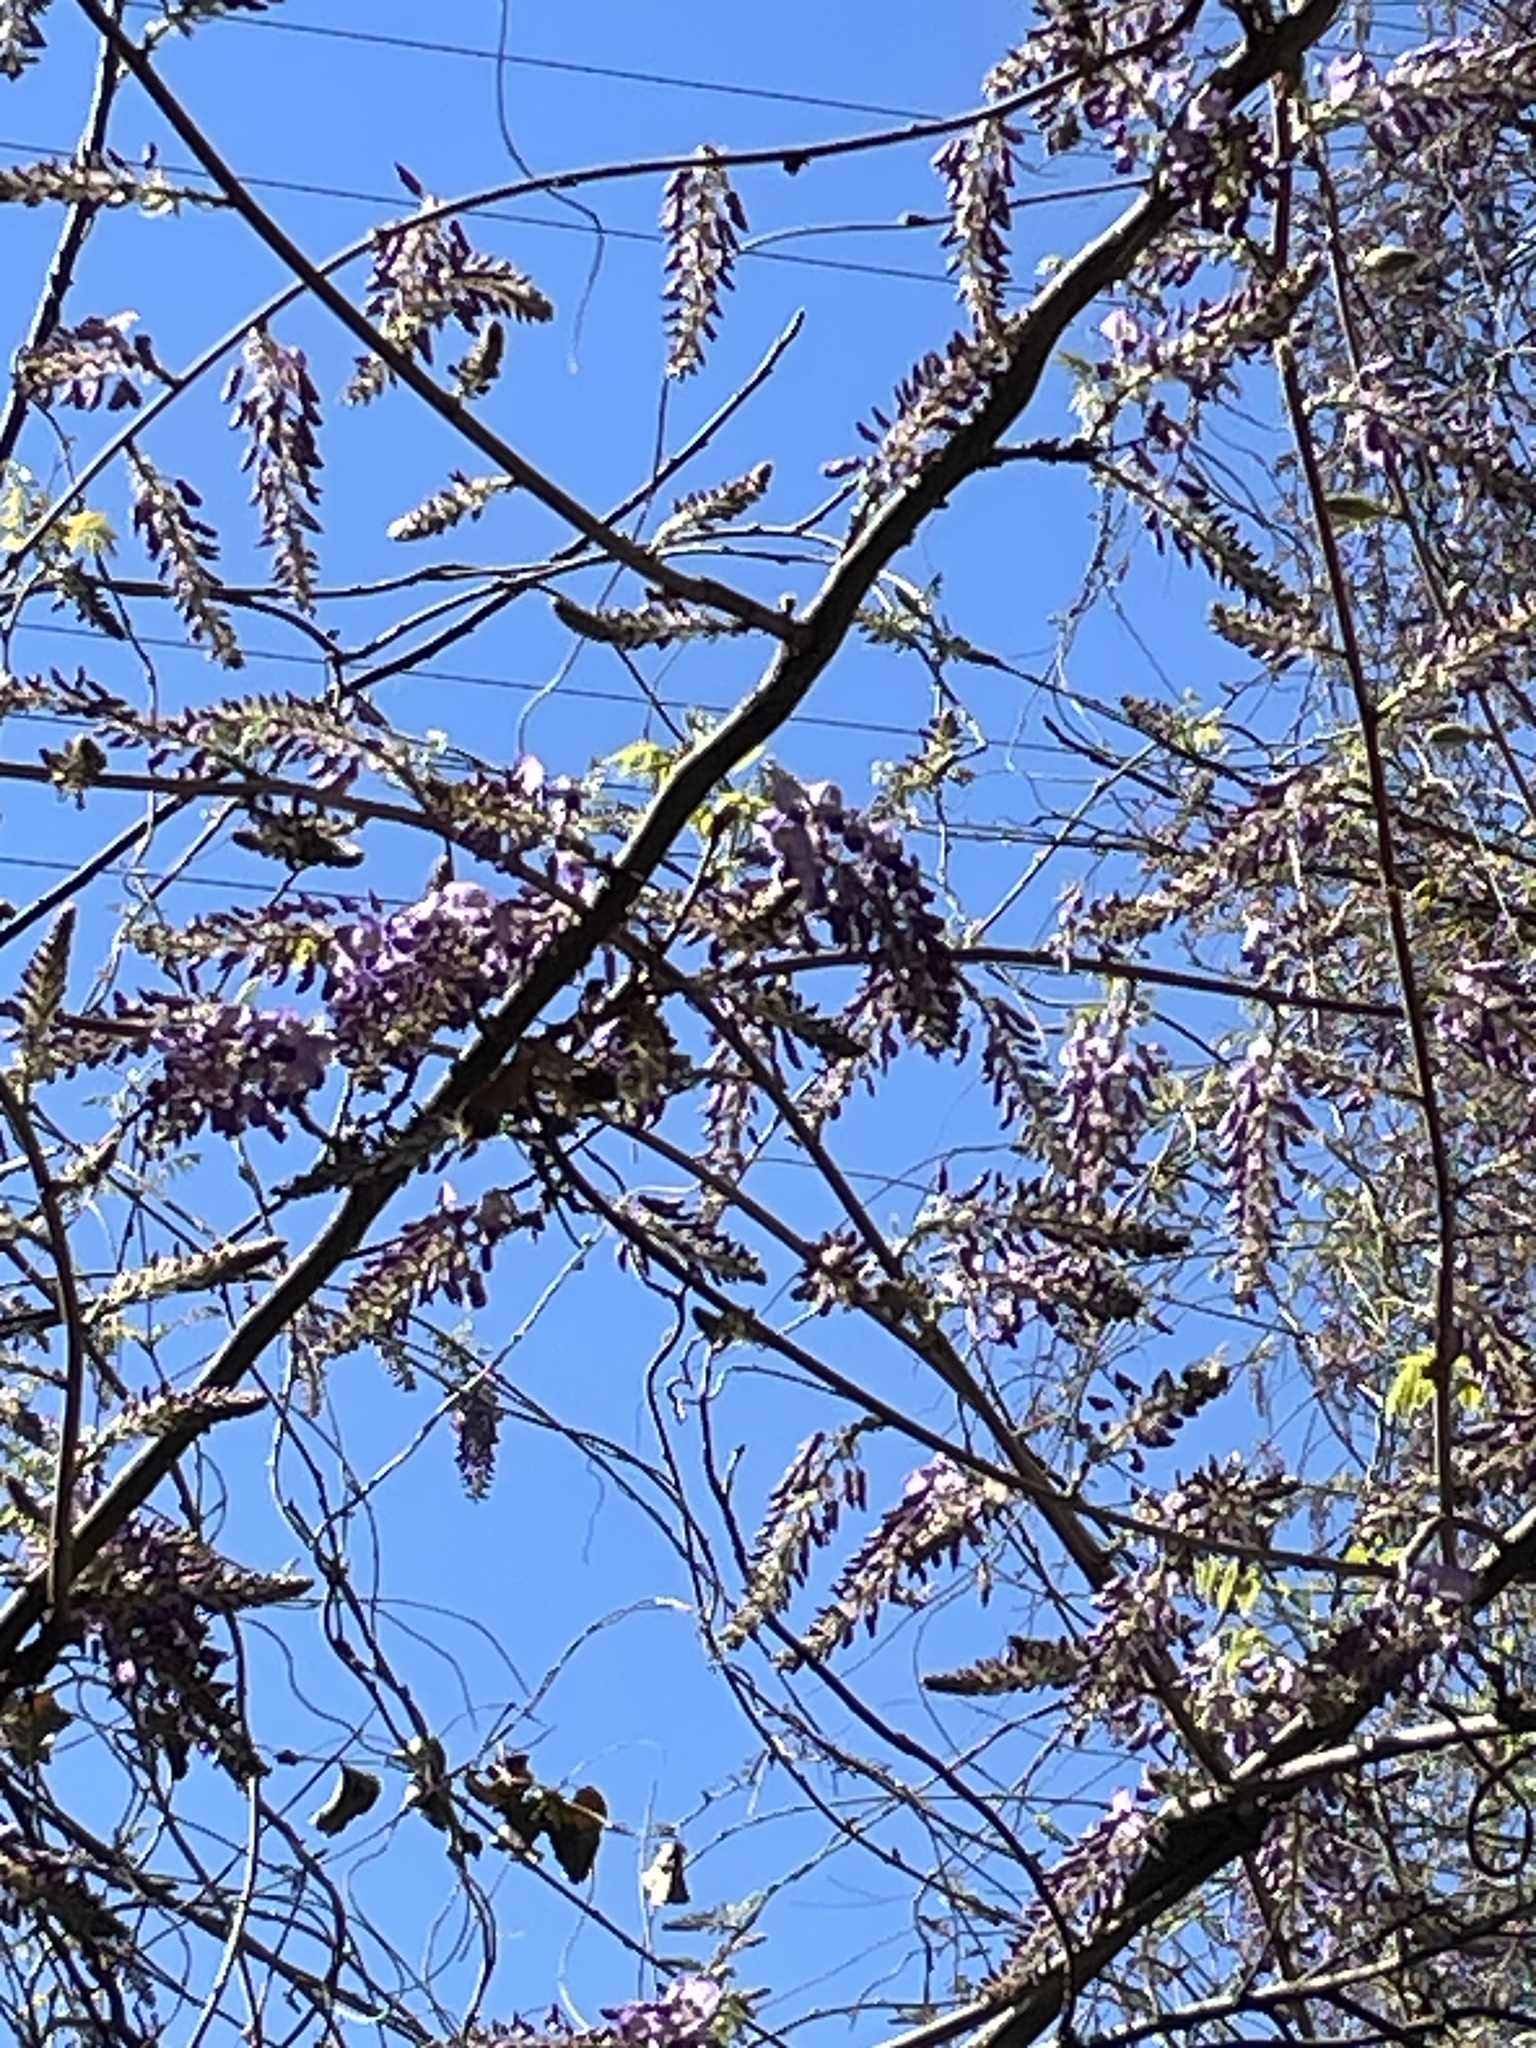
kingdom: Plantae
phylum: Tracheophyta
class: Magnoliopsida
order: Fabales
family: Fabaceae
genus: Wisteria
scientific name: Wisteria sinensis
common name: Chinese wisteria
